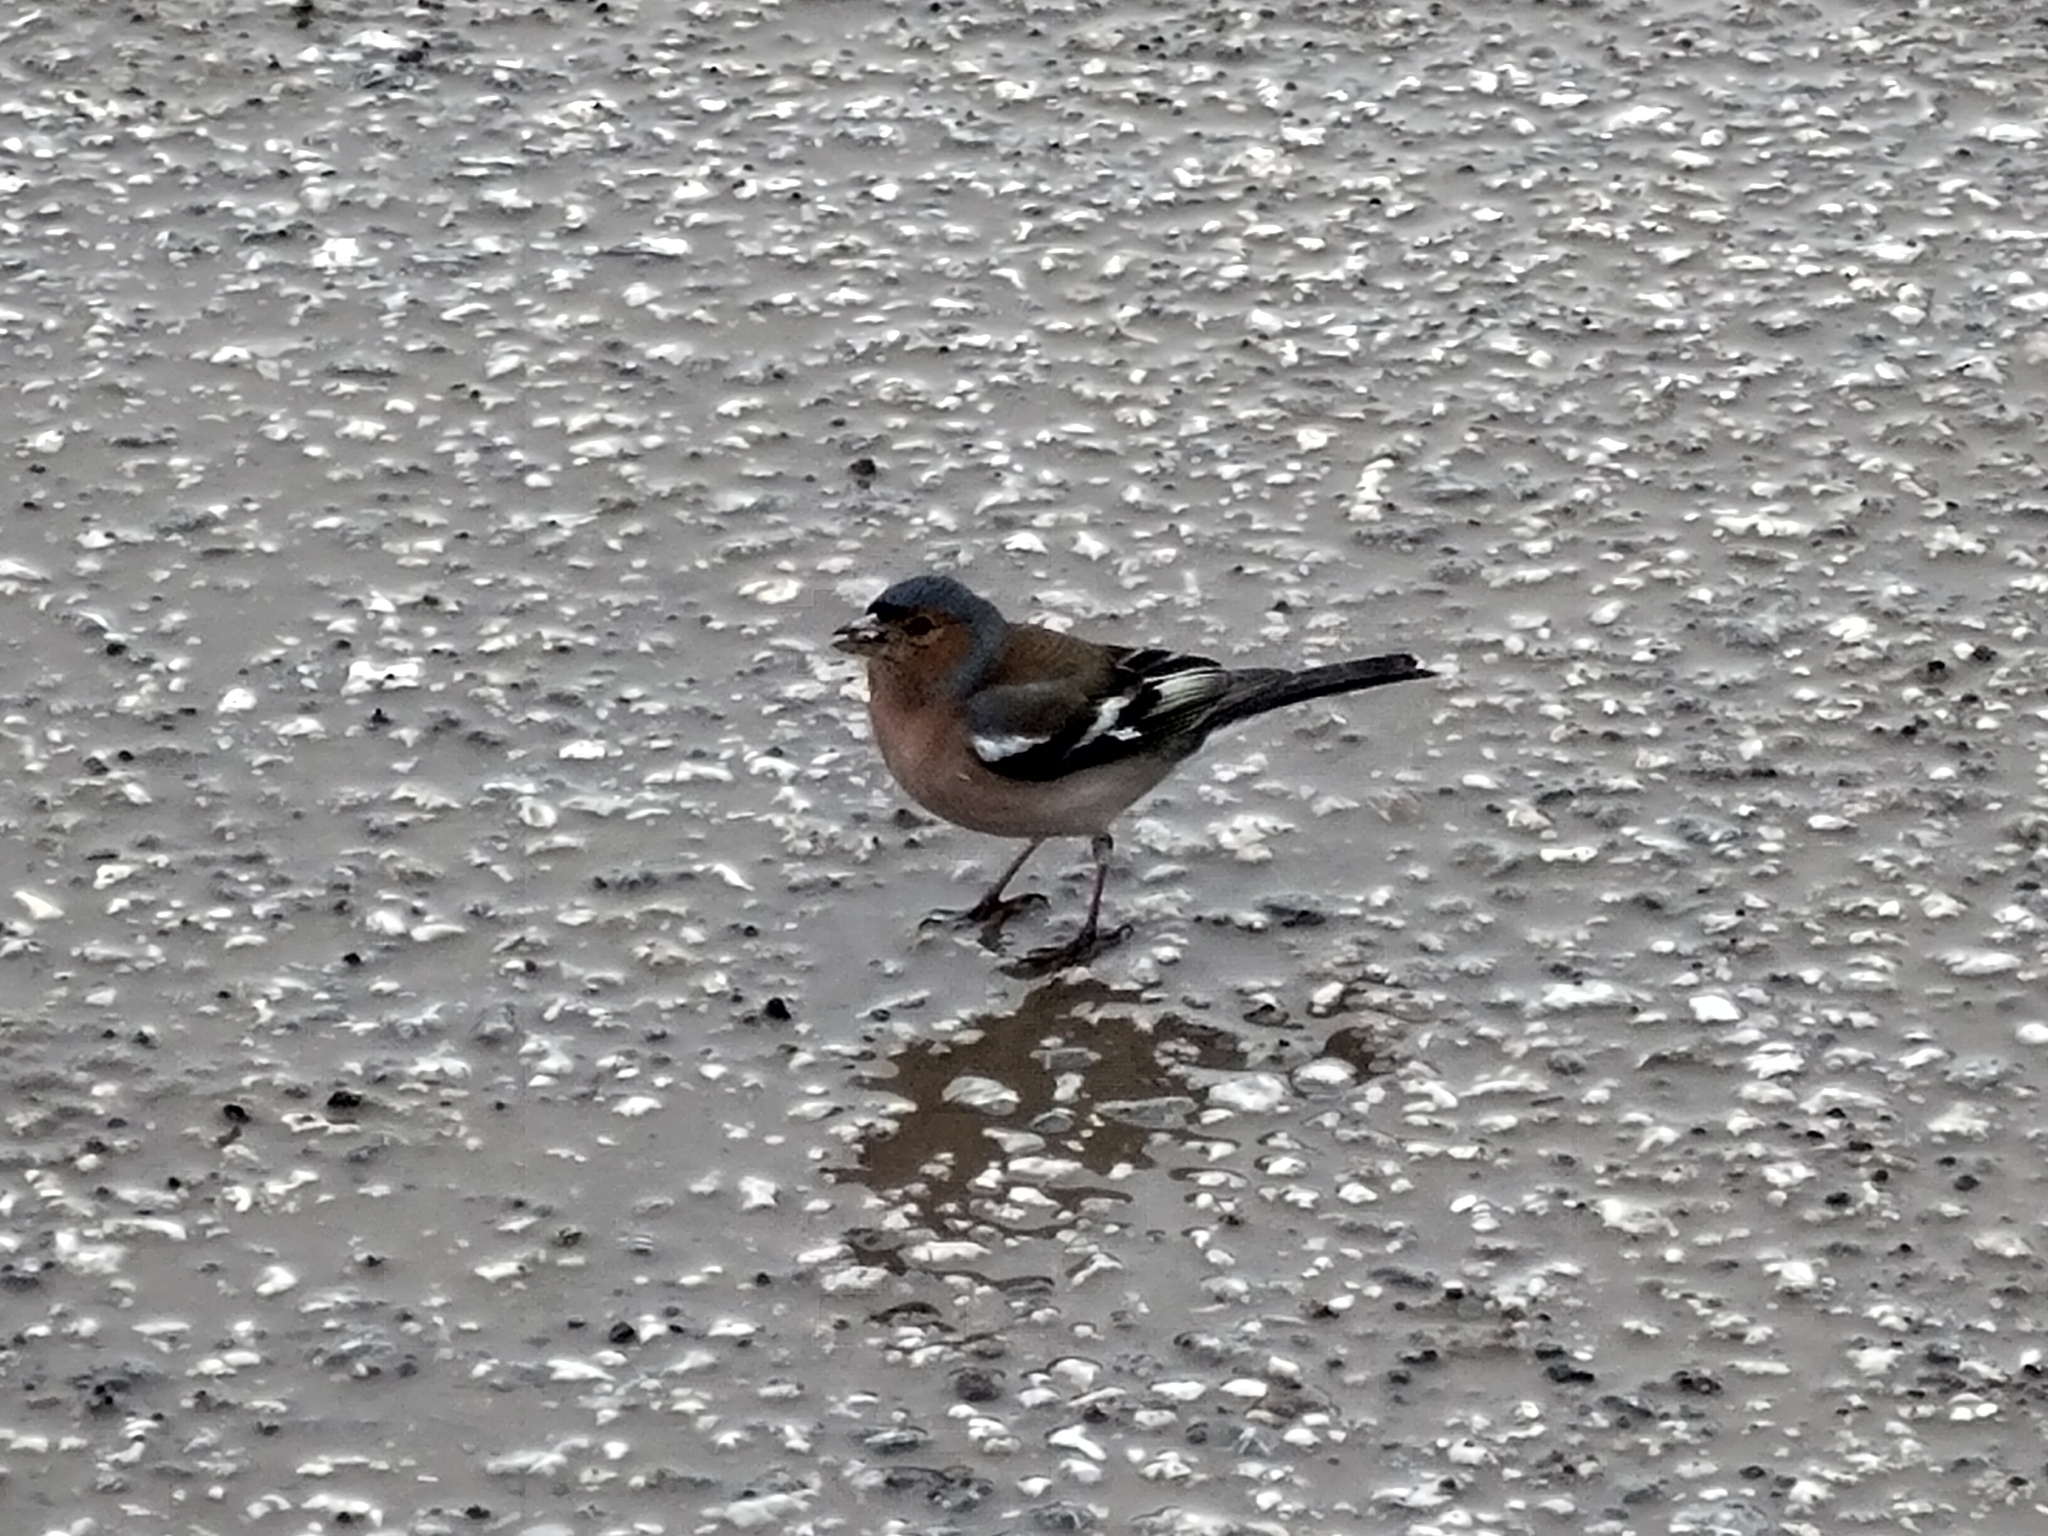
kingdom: Animalia
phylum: Chordata
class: Aves
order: Passeriformes
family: Fringillidae
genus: Fringilla
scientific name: Fringilla coelebs
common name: Common chaffinch
